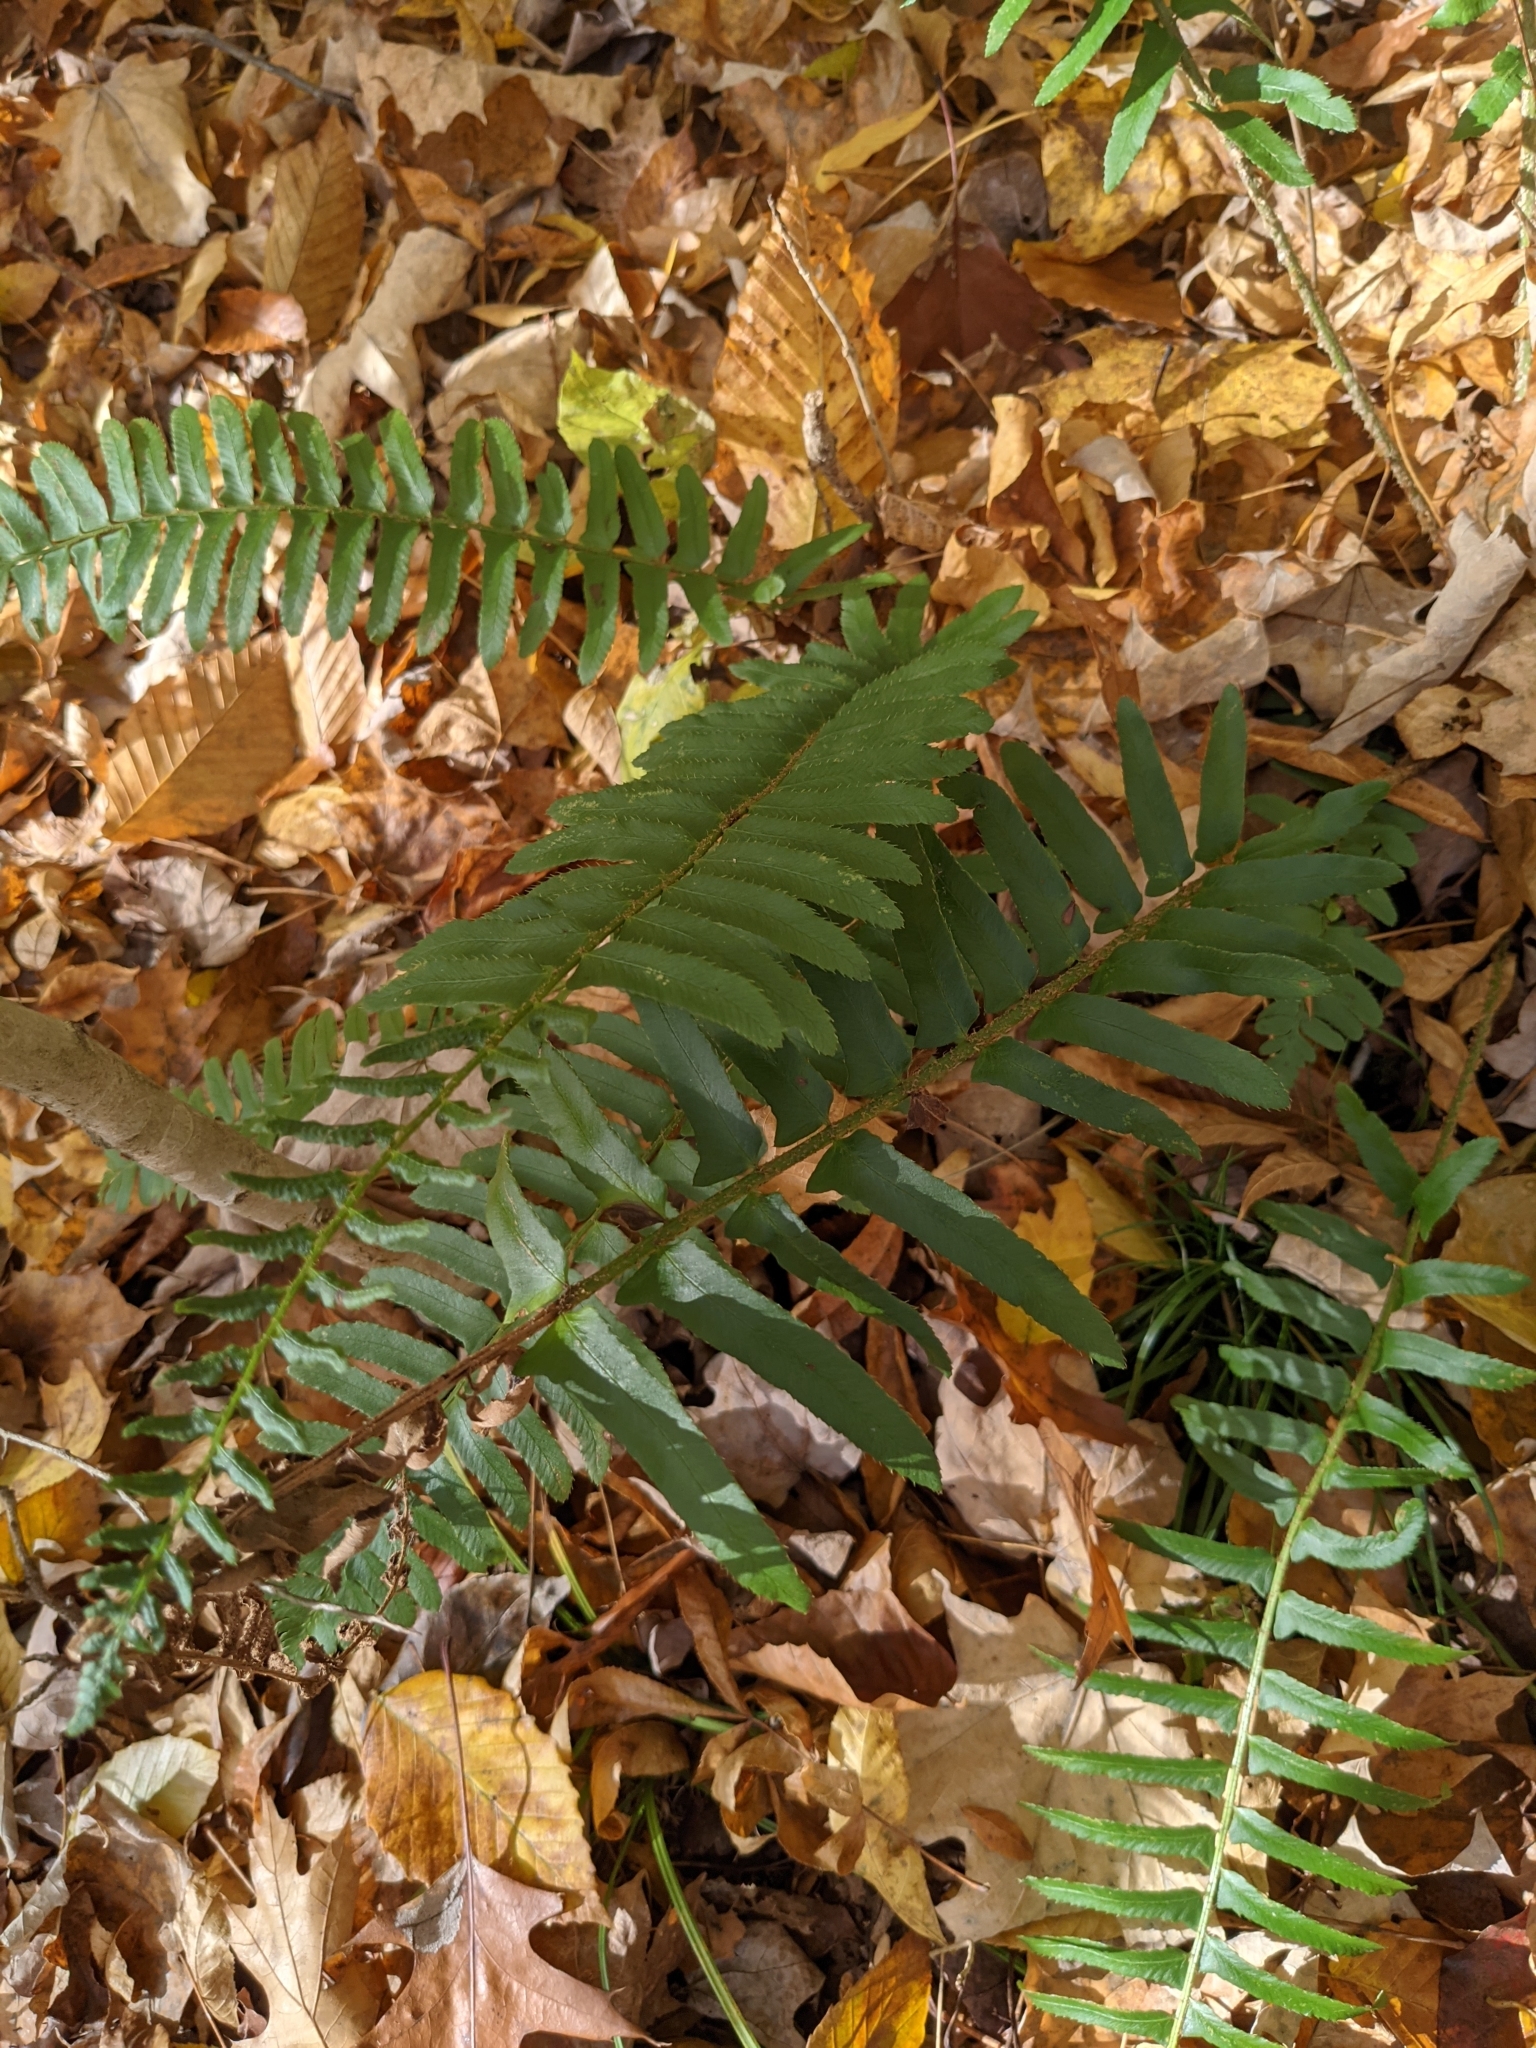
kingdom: Plantae
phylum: Tracheophyta
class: Polypodiopsida
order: Polypodiales
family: Dryopteridaceae
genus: Polystichum
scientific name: Polystichum acrostichoides
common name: Christmas fern
